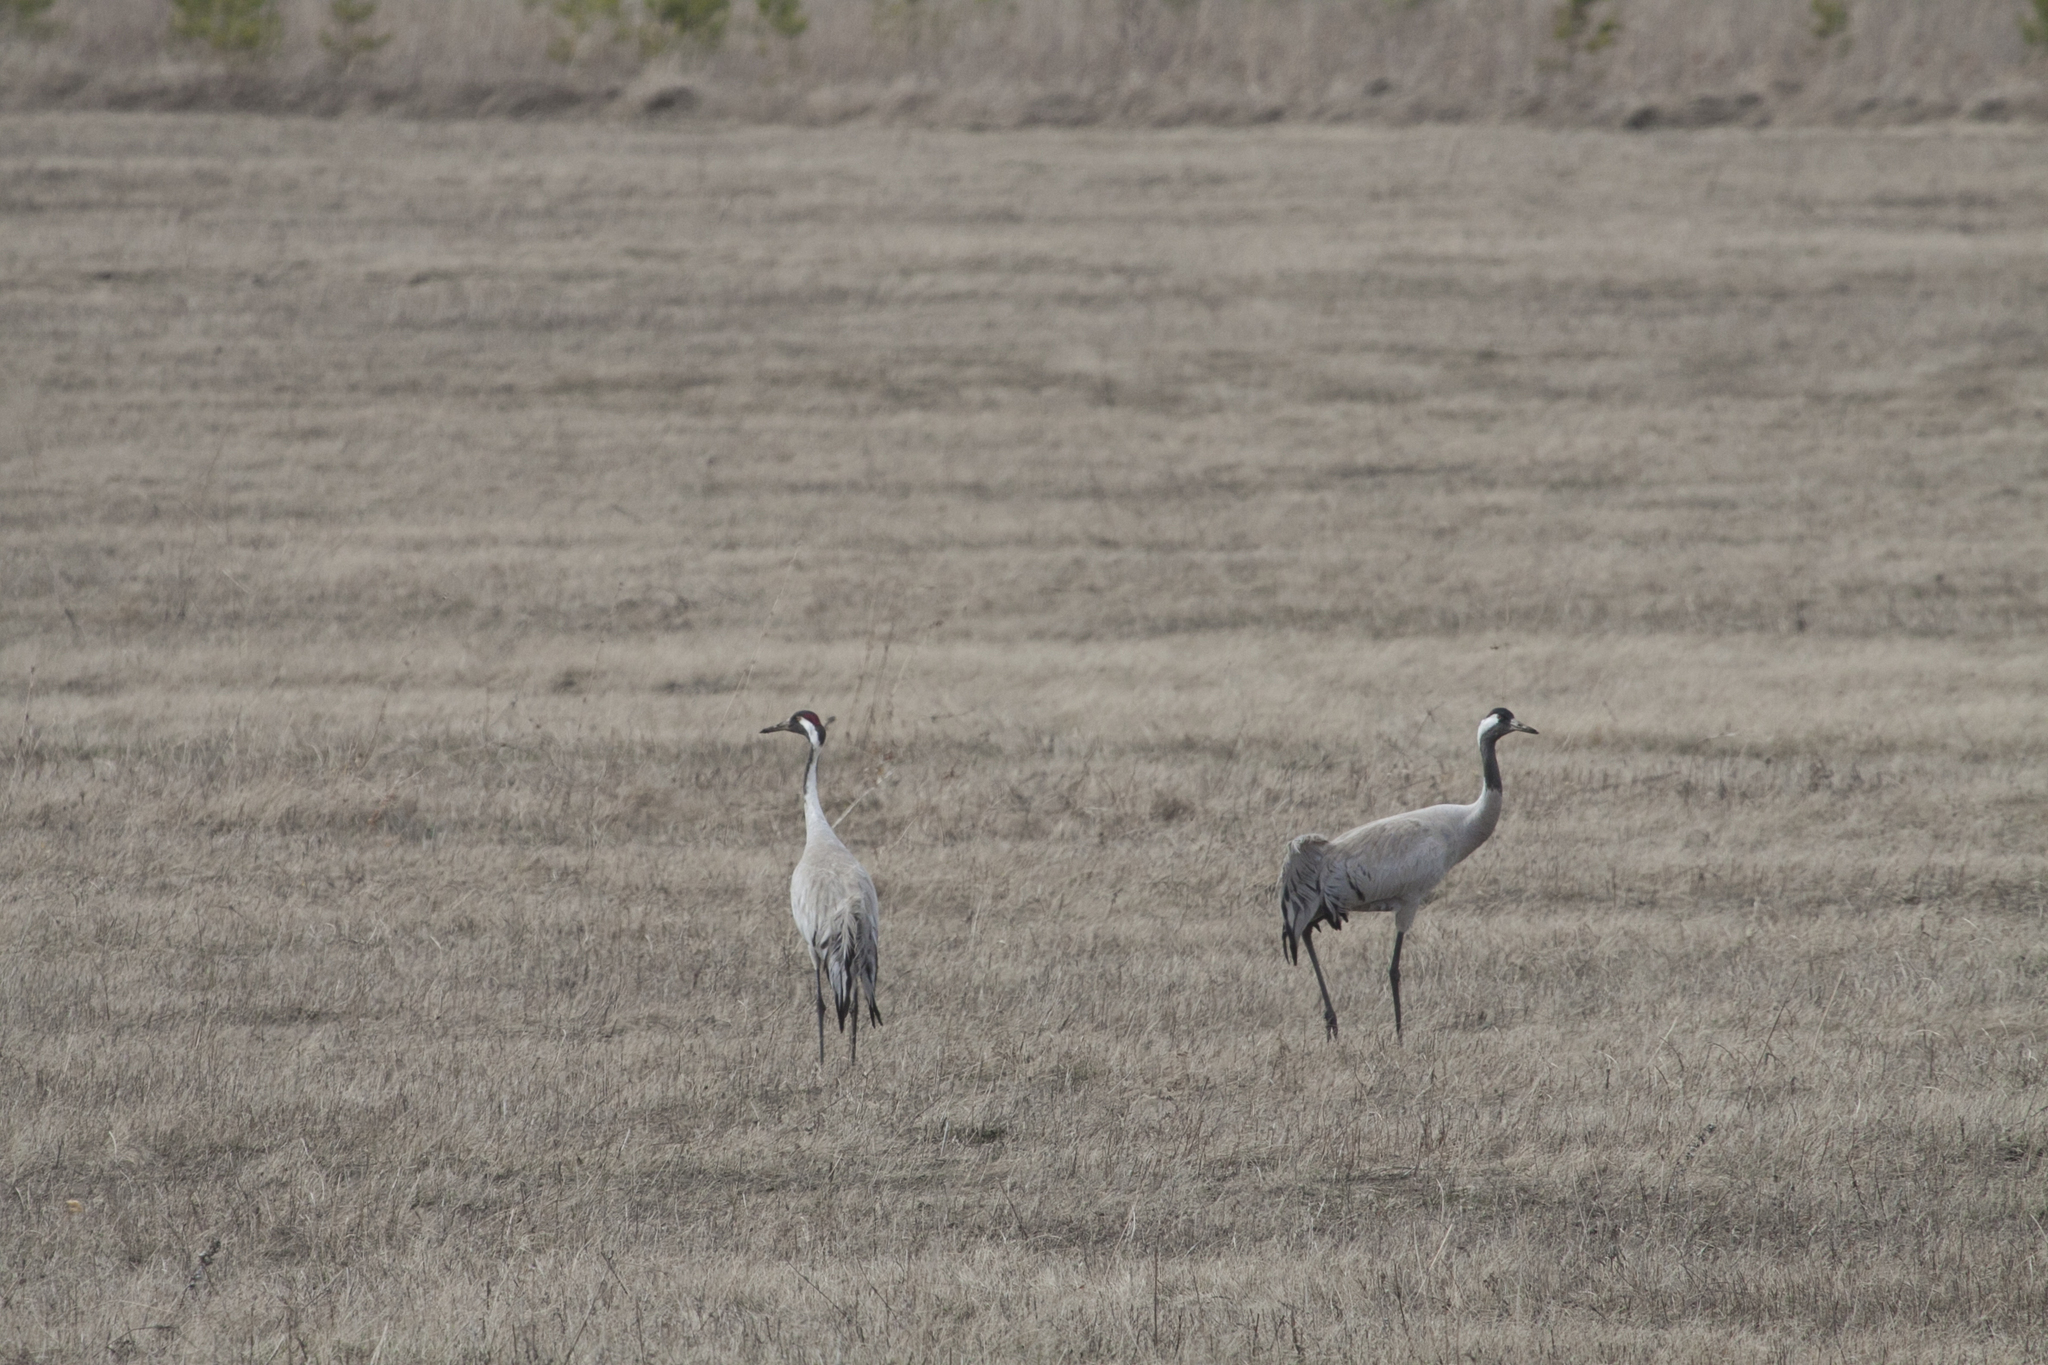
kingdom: Animalia
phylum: Chordata
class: Aves
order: Gruiformes
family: Gruidae
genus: Grus
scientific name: Grus grus
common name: Common crane
